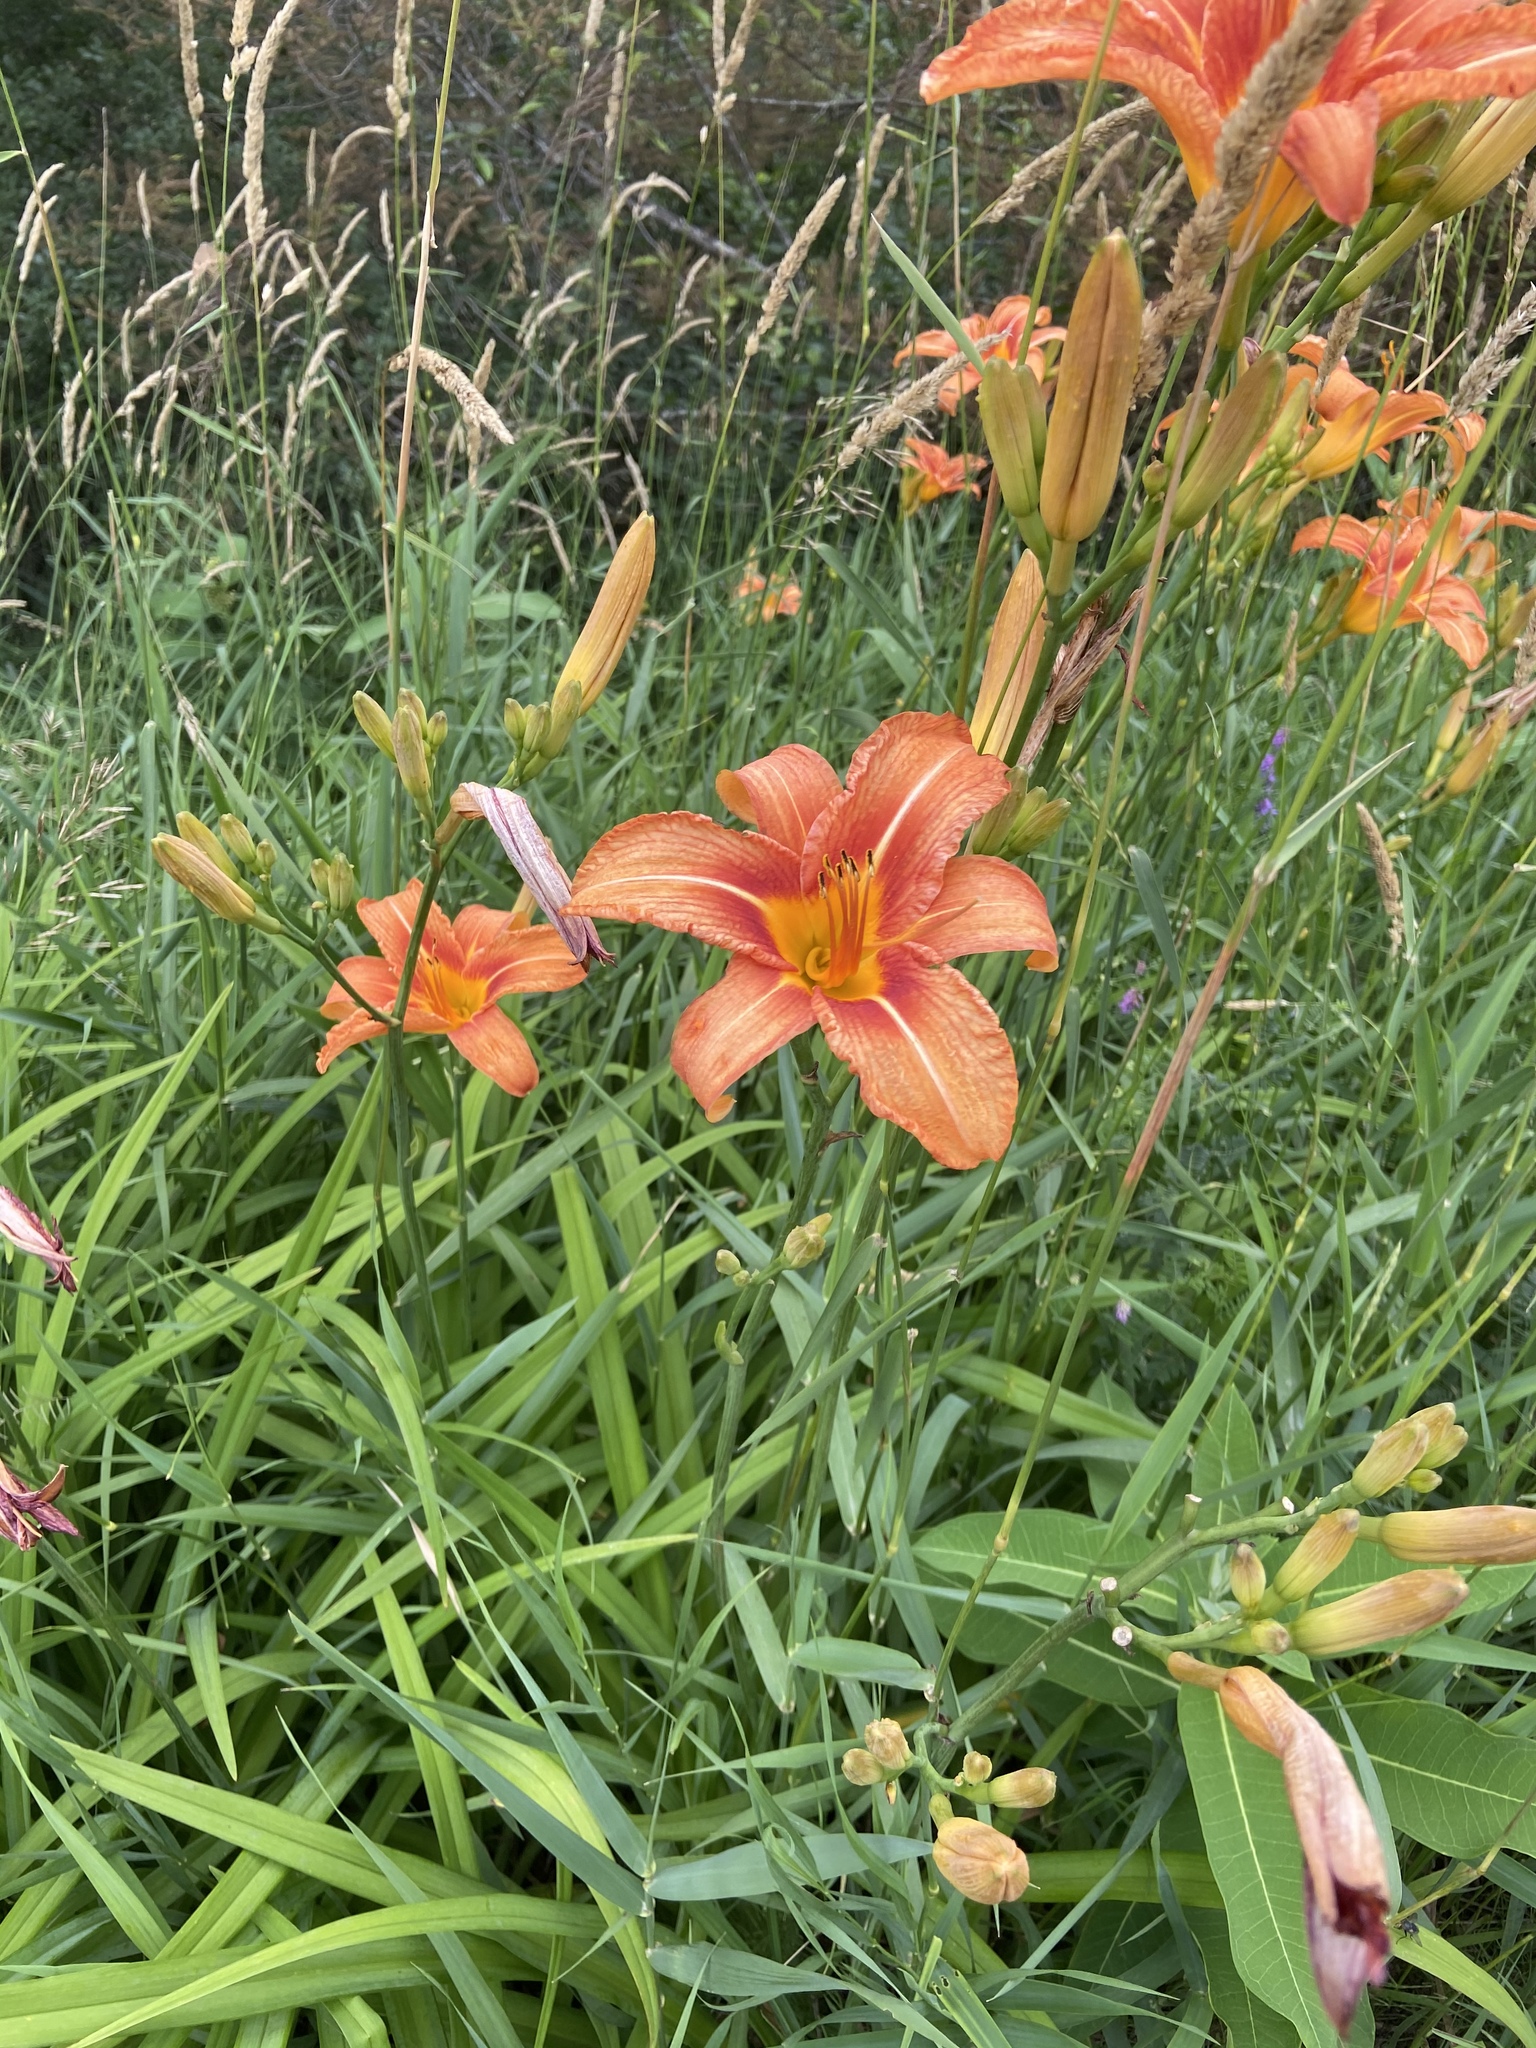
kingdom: Plantae
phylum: Tracheophyta
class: Liliopsida
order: Asparagales
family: Asphodelaceae
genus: Hemerocallis
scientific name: Hemerocallis fulva
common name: Orange day-lily
